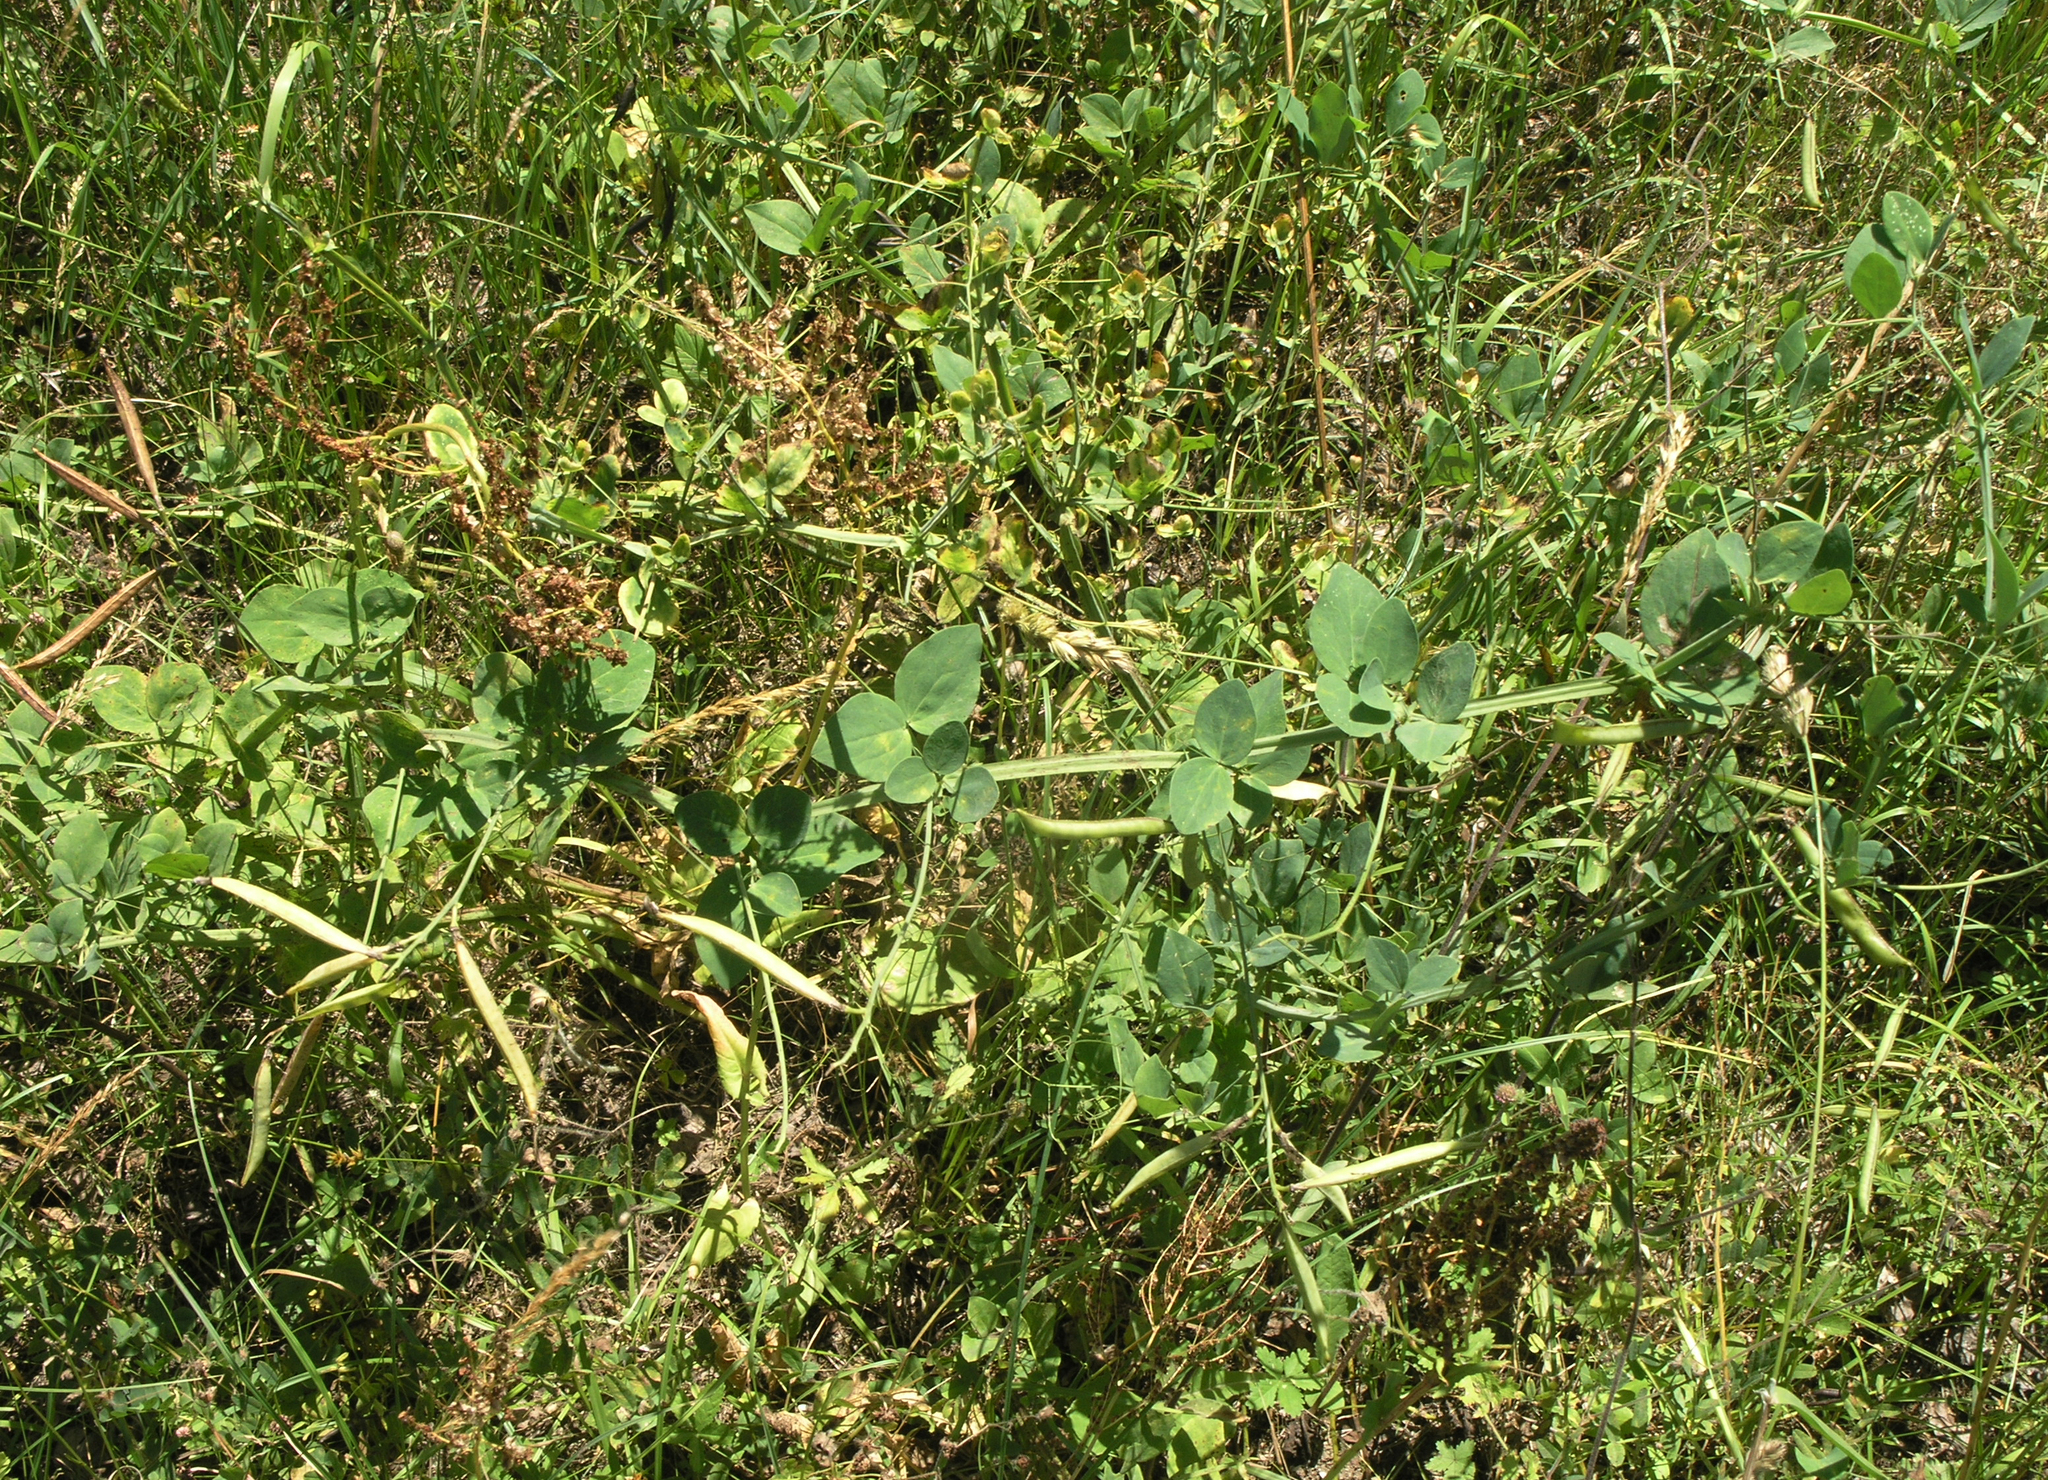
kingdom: Plantae
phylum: Tracheophyta
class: Magnoliopsida
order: Fabales
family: Fabaceae
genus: Lathyrus
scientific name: Lathyrus miniatus
